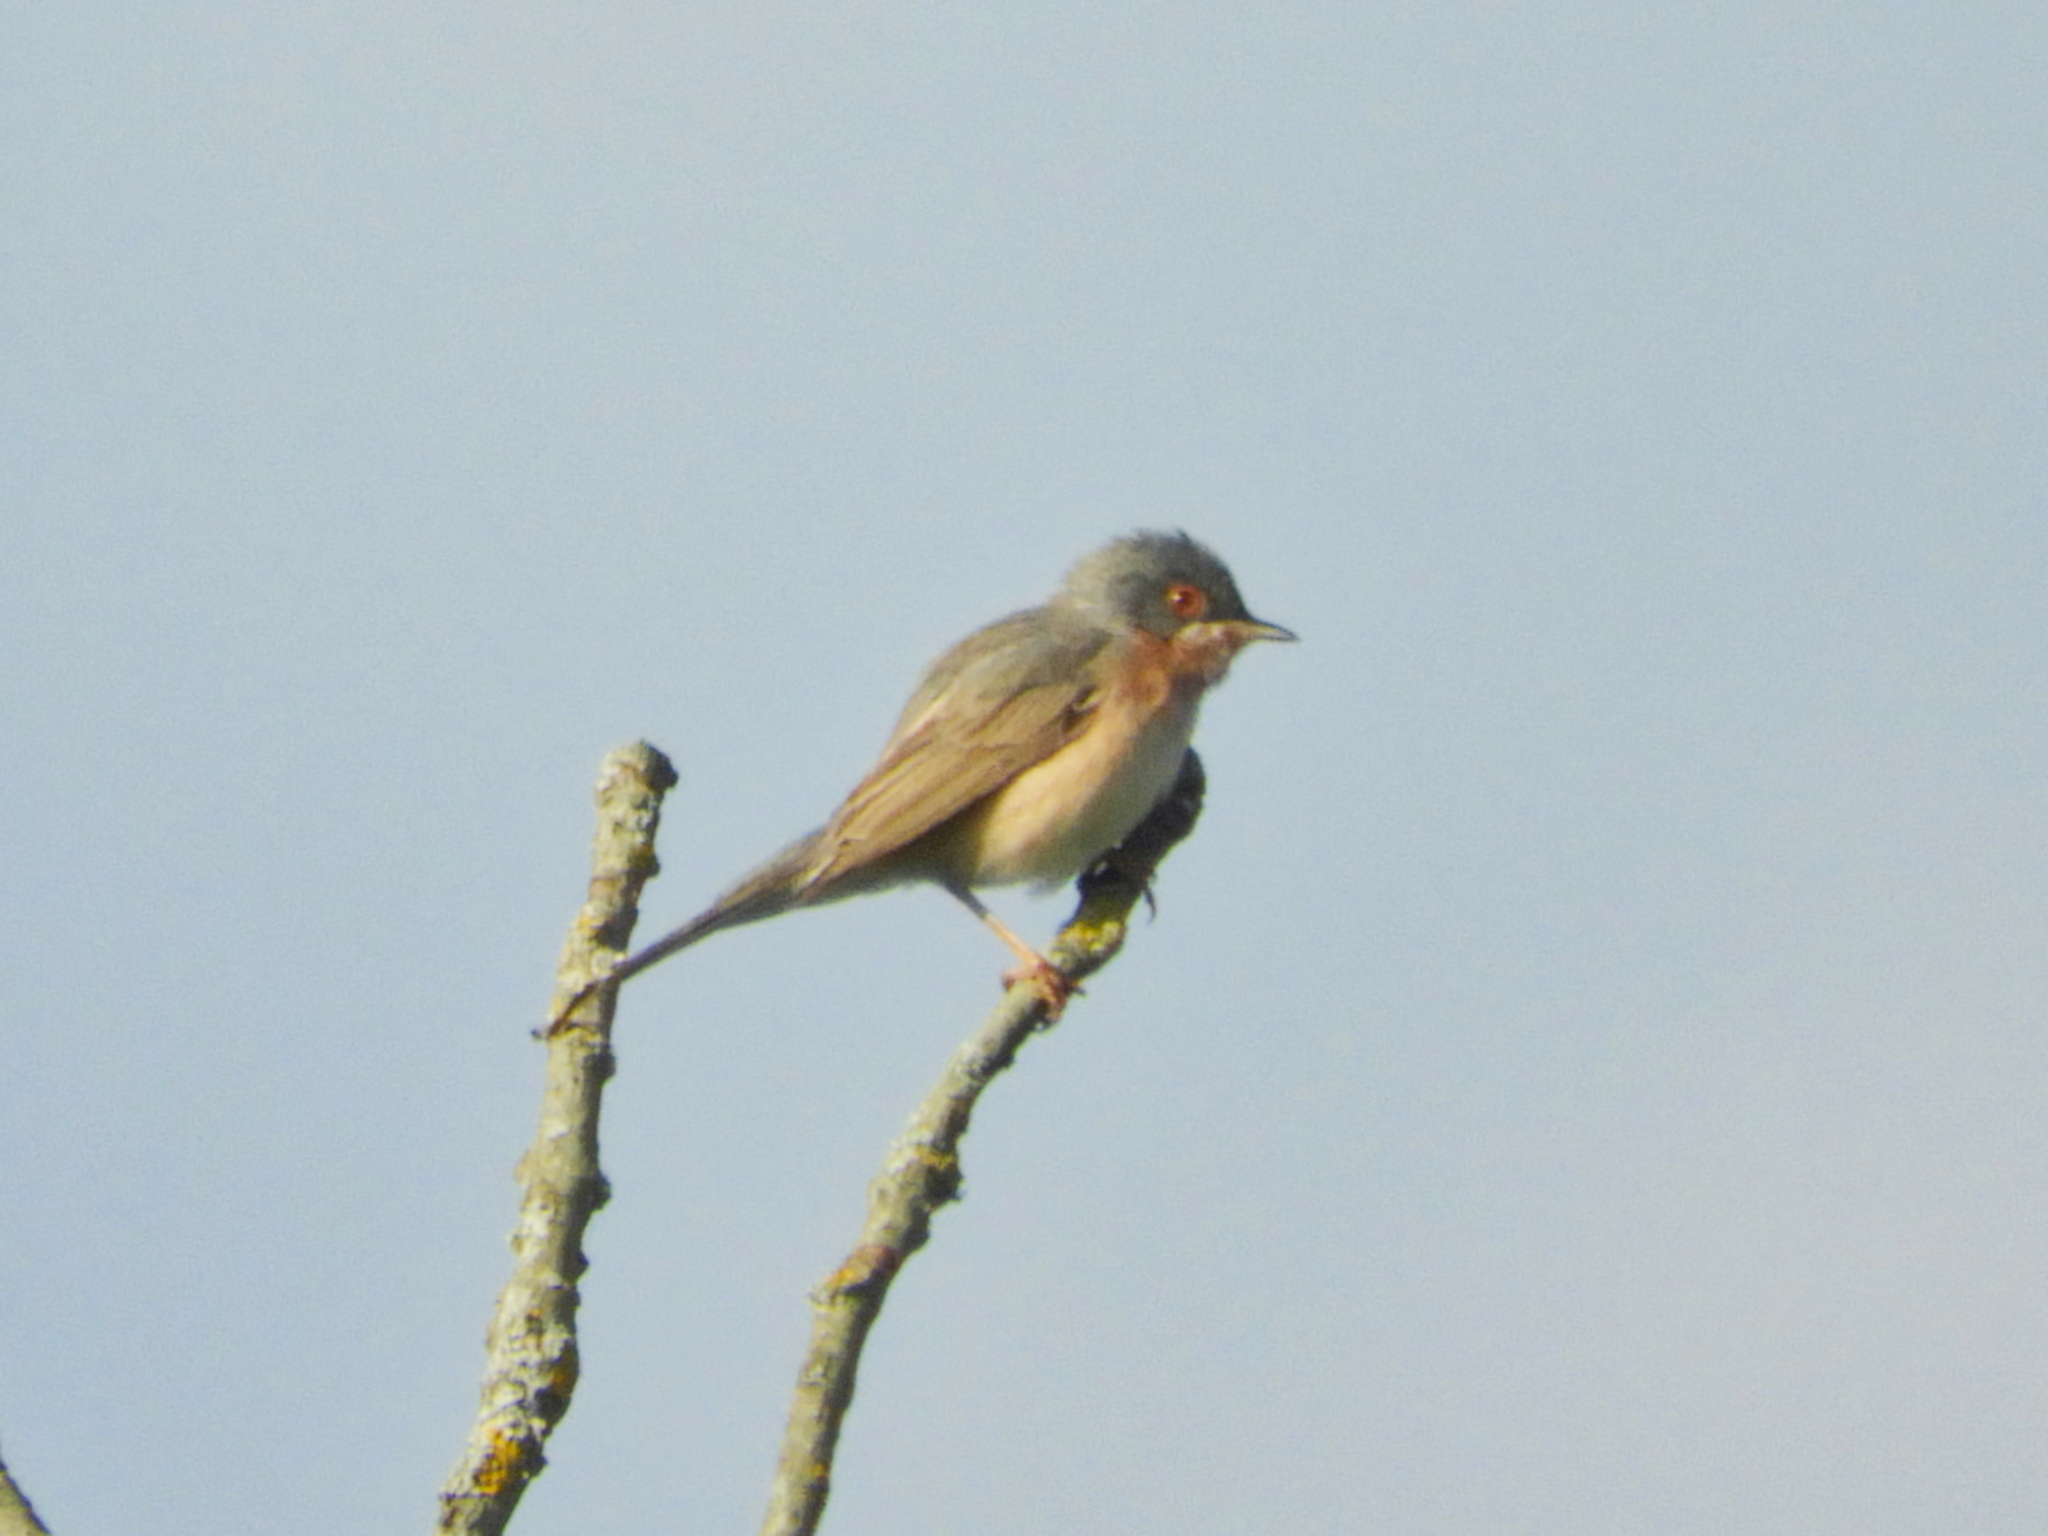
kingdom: Animalia
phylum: Chordata
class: Aves
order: Passeriformes
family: Sylviidae
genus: Curruca
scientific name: Curruca subalpina
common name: Moltoni's warbler
